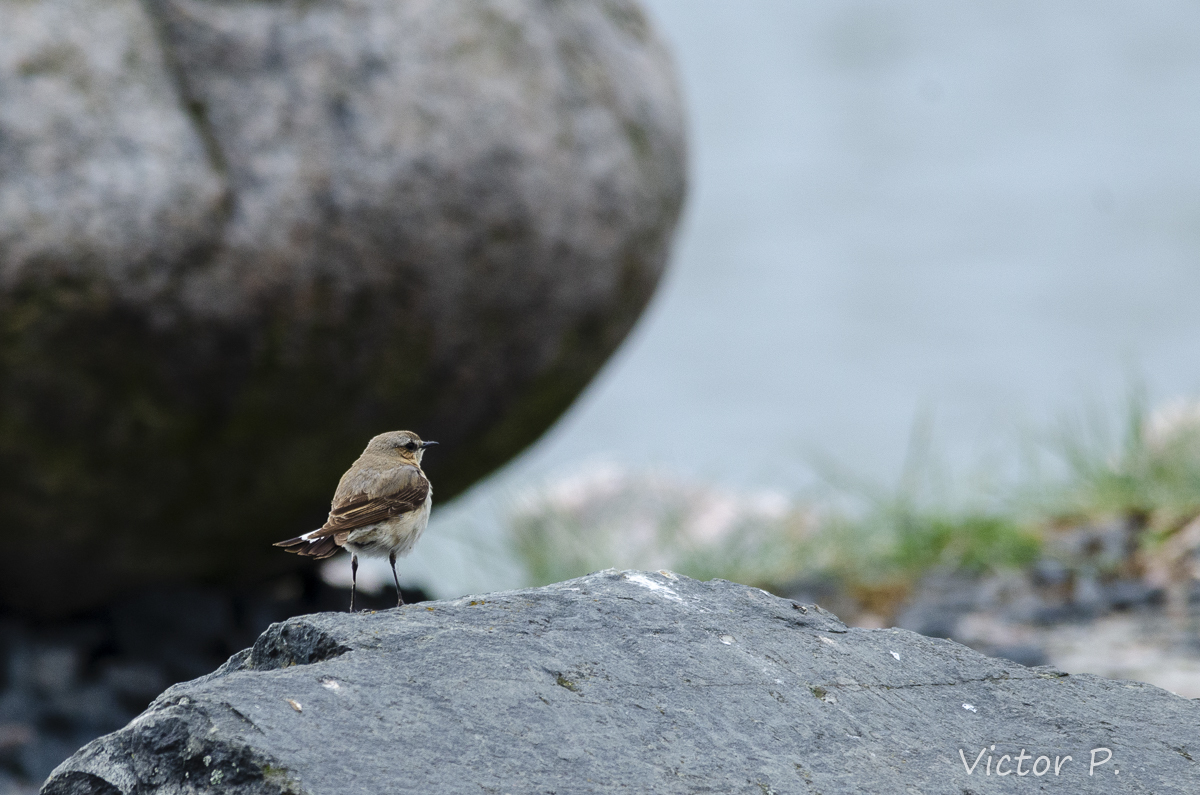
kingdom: Animalia
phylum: Chordata
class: Aves
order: Passeriformes
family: Muscicapidae
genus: Oenanthe
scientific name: Oenanthe oenanthe
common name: Northern wheatear
